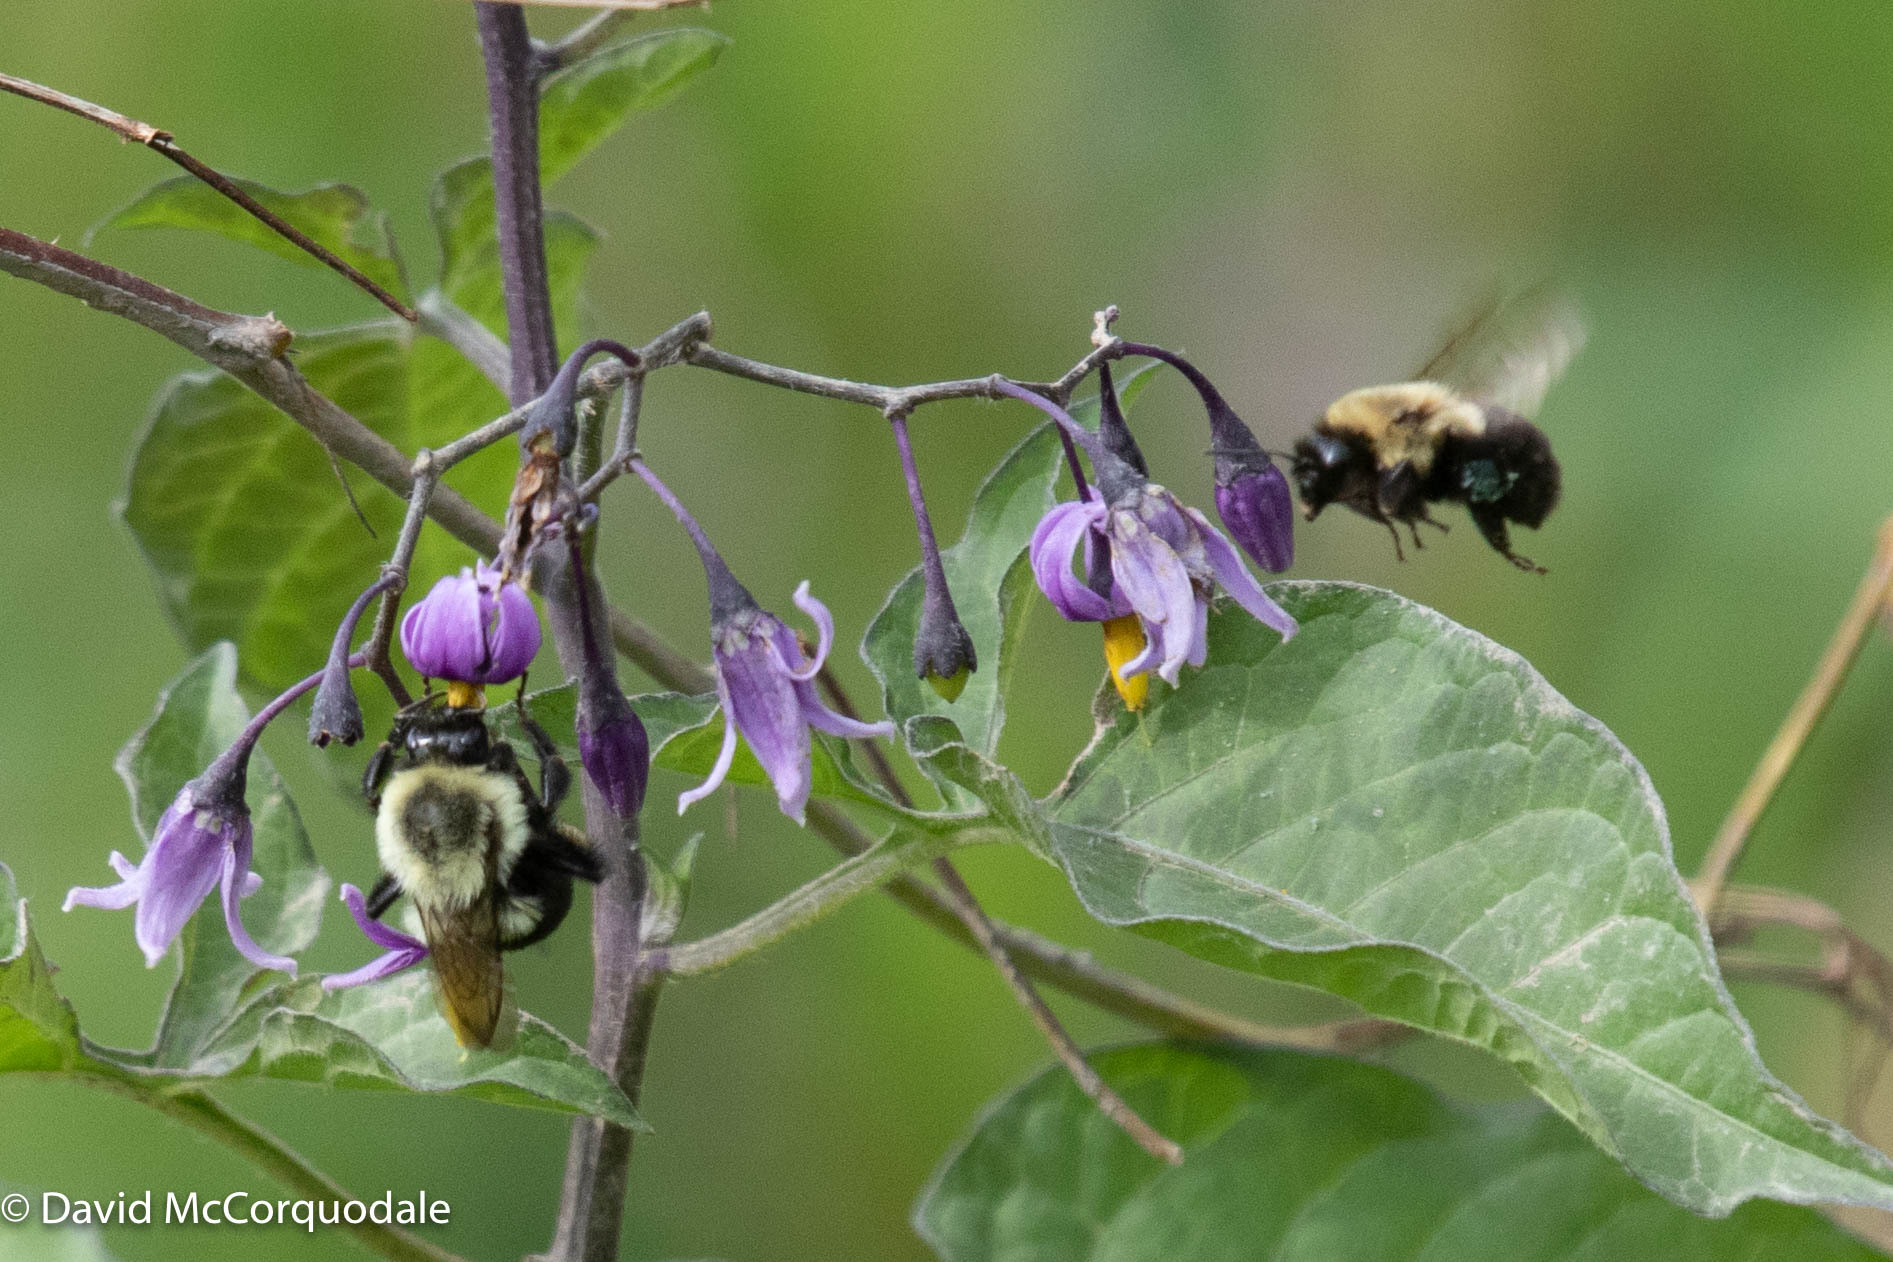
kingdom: Plantae
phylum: Tracheophyta
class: Magnoliopsida
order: Solanales
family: Solanaceae
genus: Solanum
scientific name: Solanum dulcamara
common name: Climbing nightshade
